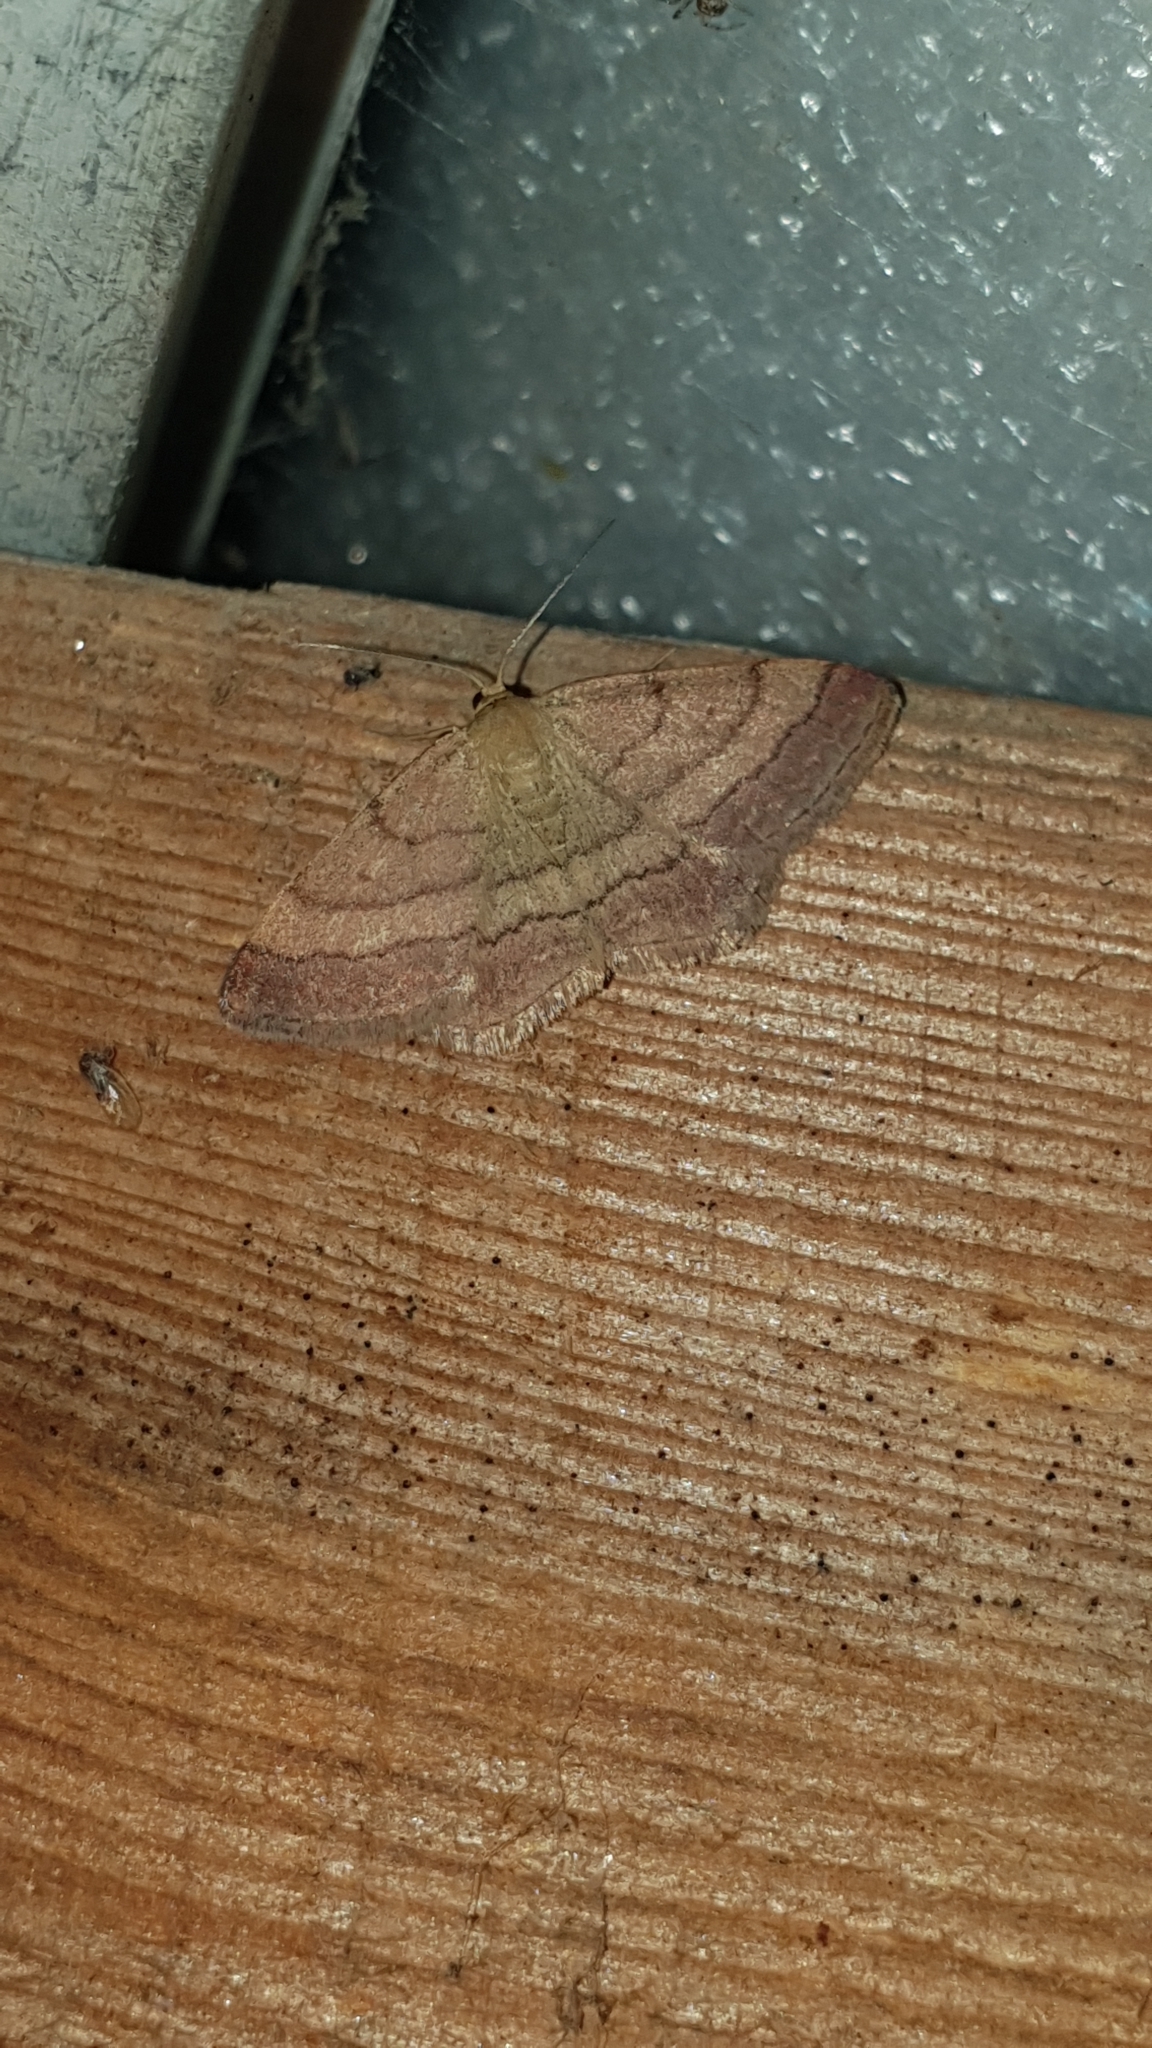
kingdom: Animalia
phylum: Arthropoda
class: Insecta
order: Lepidoptera
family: Geometridae
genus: Scopula
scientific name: Scopula rubiginata
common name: Tawny wave
